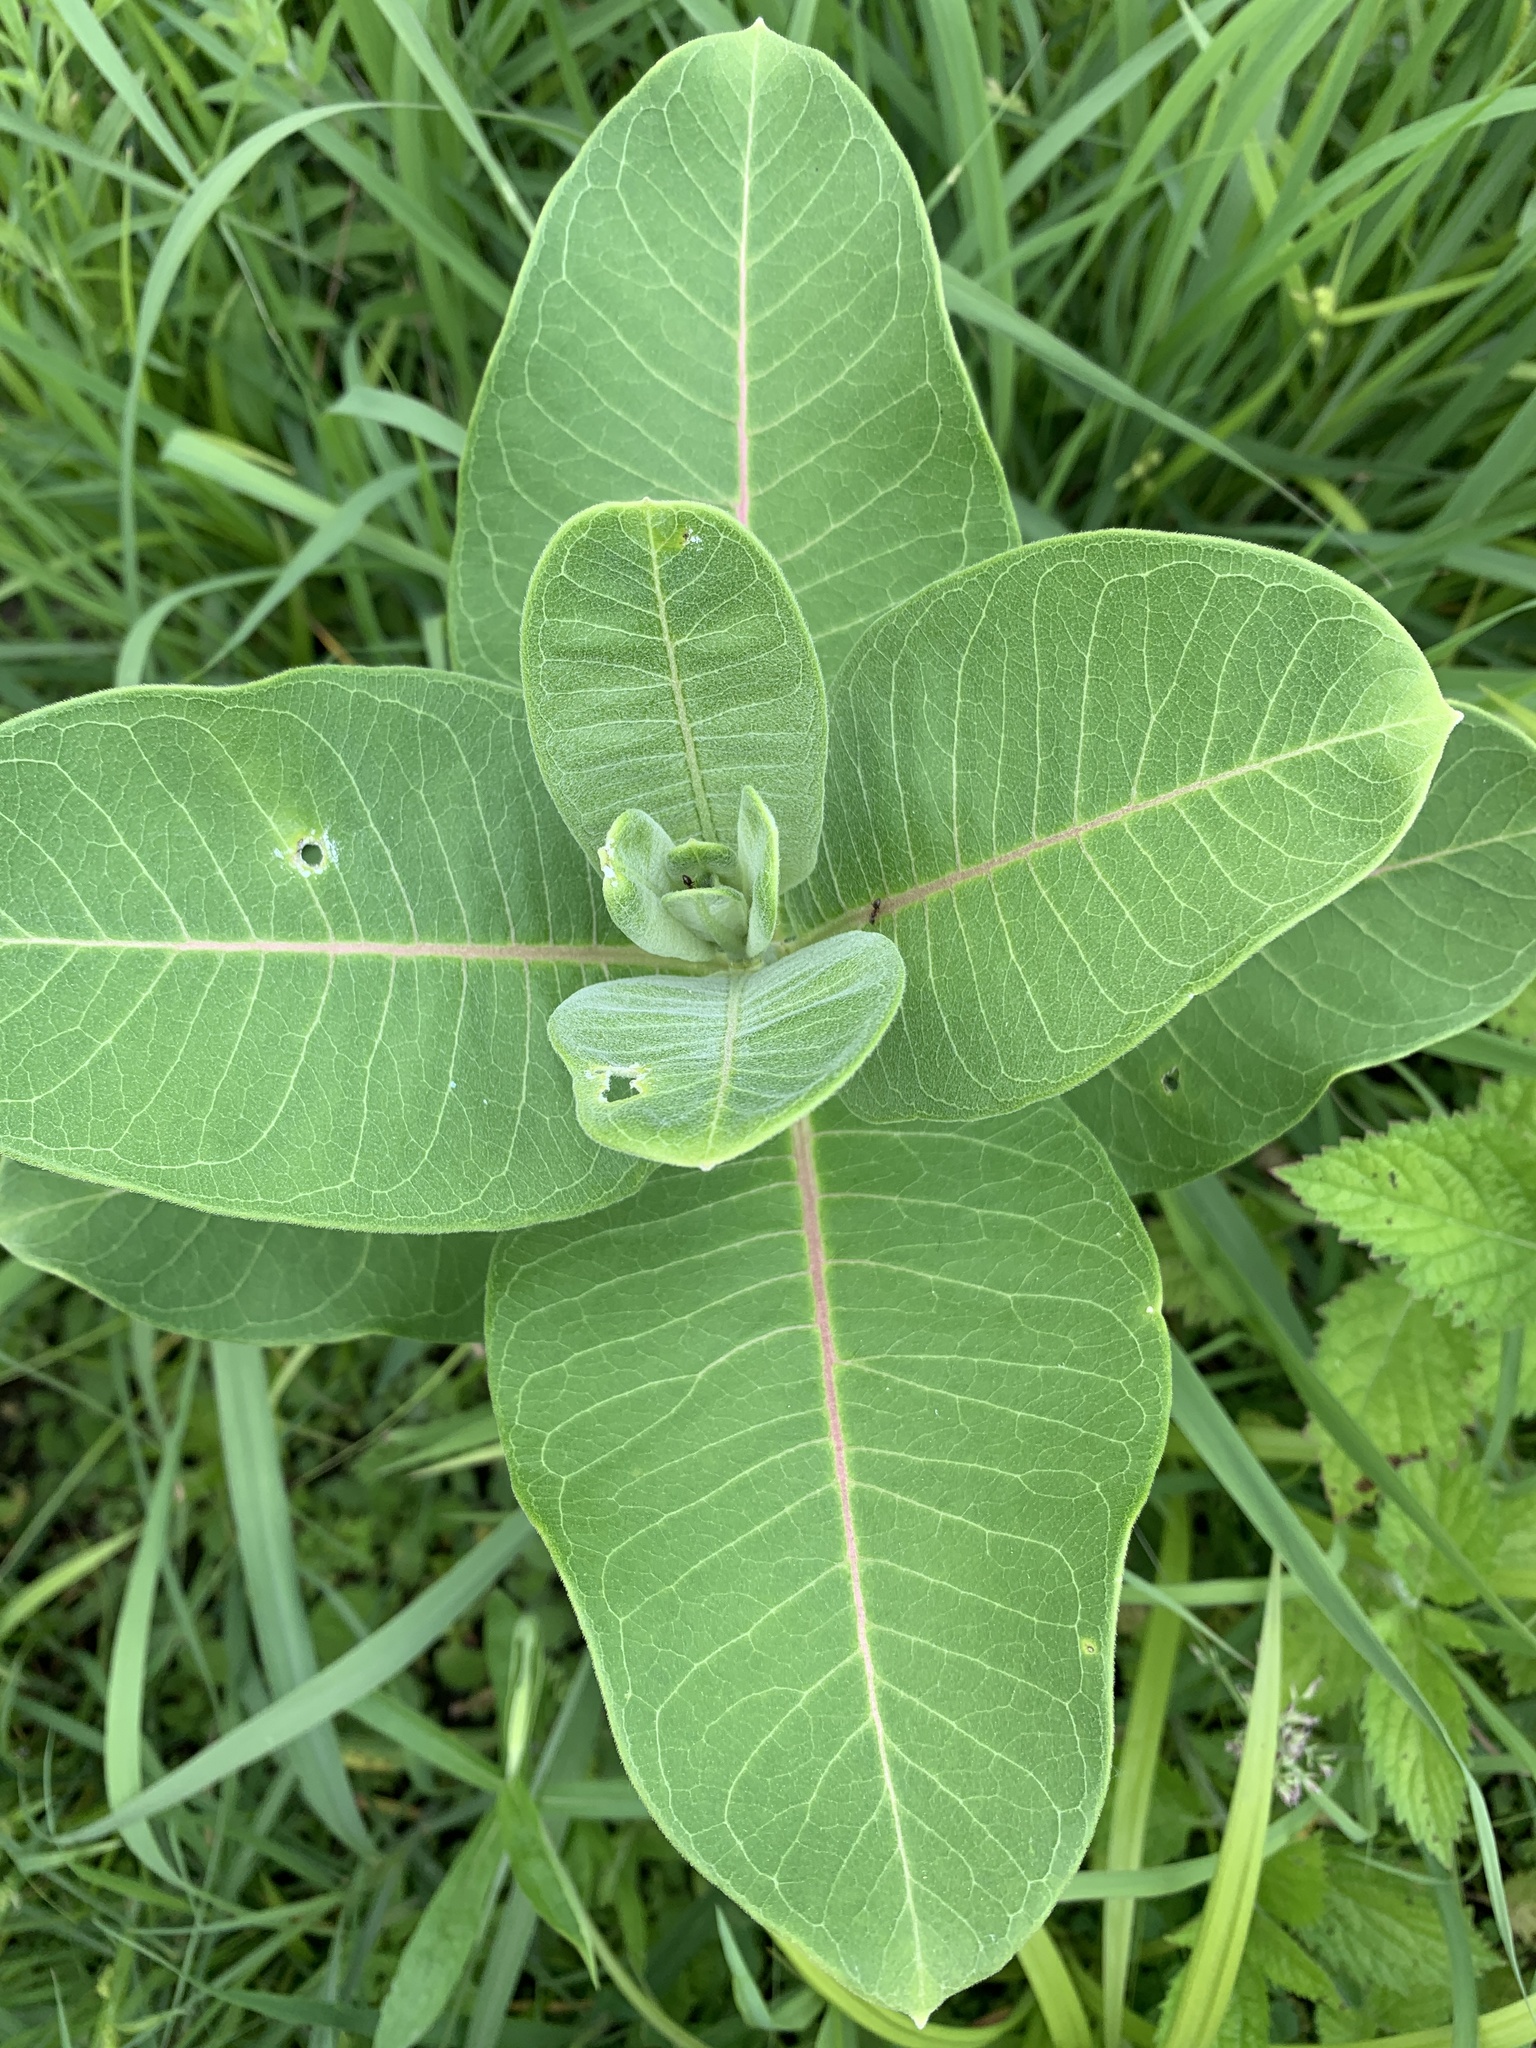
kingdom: Plantae
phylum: Tracheophyta
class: Magnoliopsida
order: Gentianales
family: Apocynaceae
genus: Asclepias
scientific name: Asclepias syriaca
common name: Common milkweed
